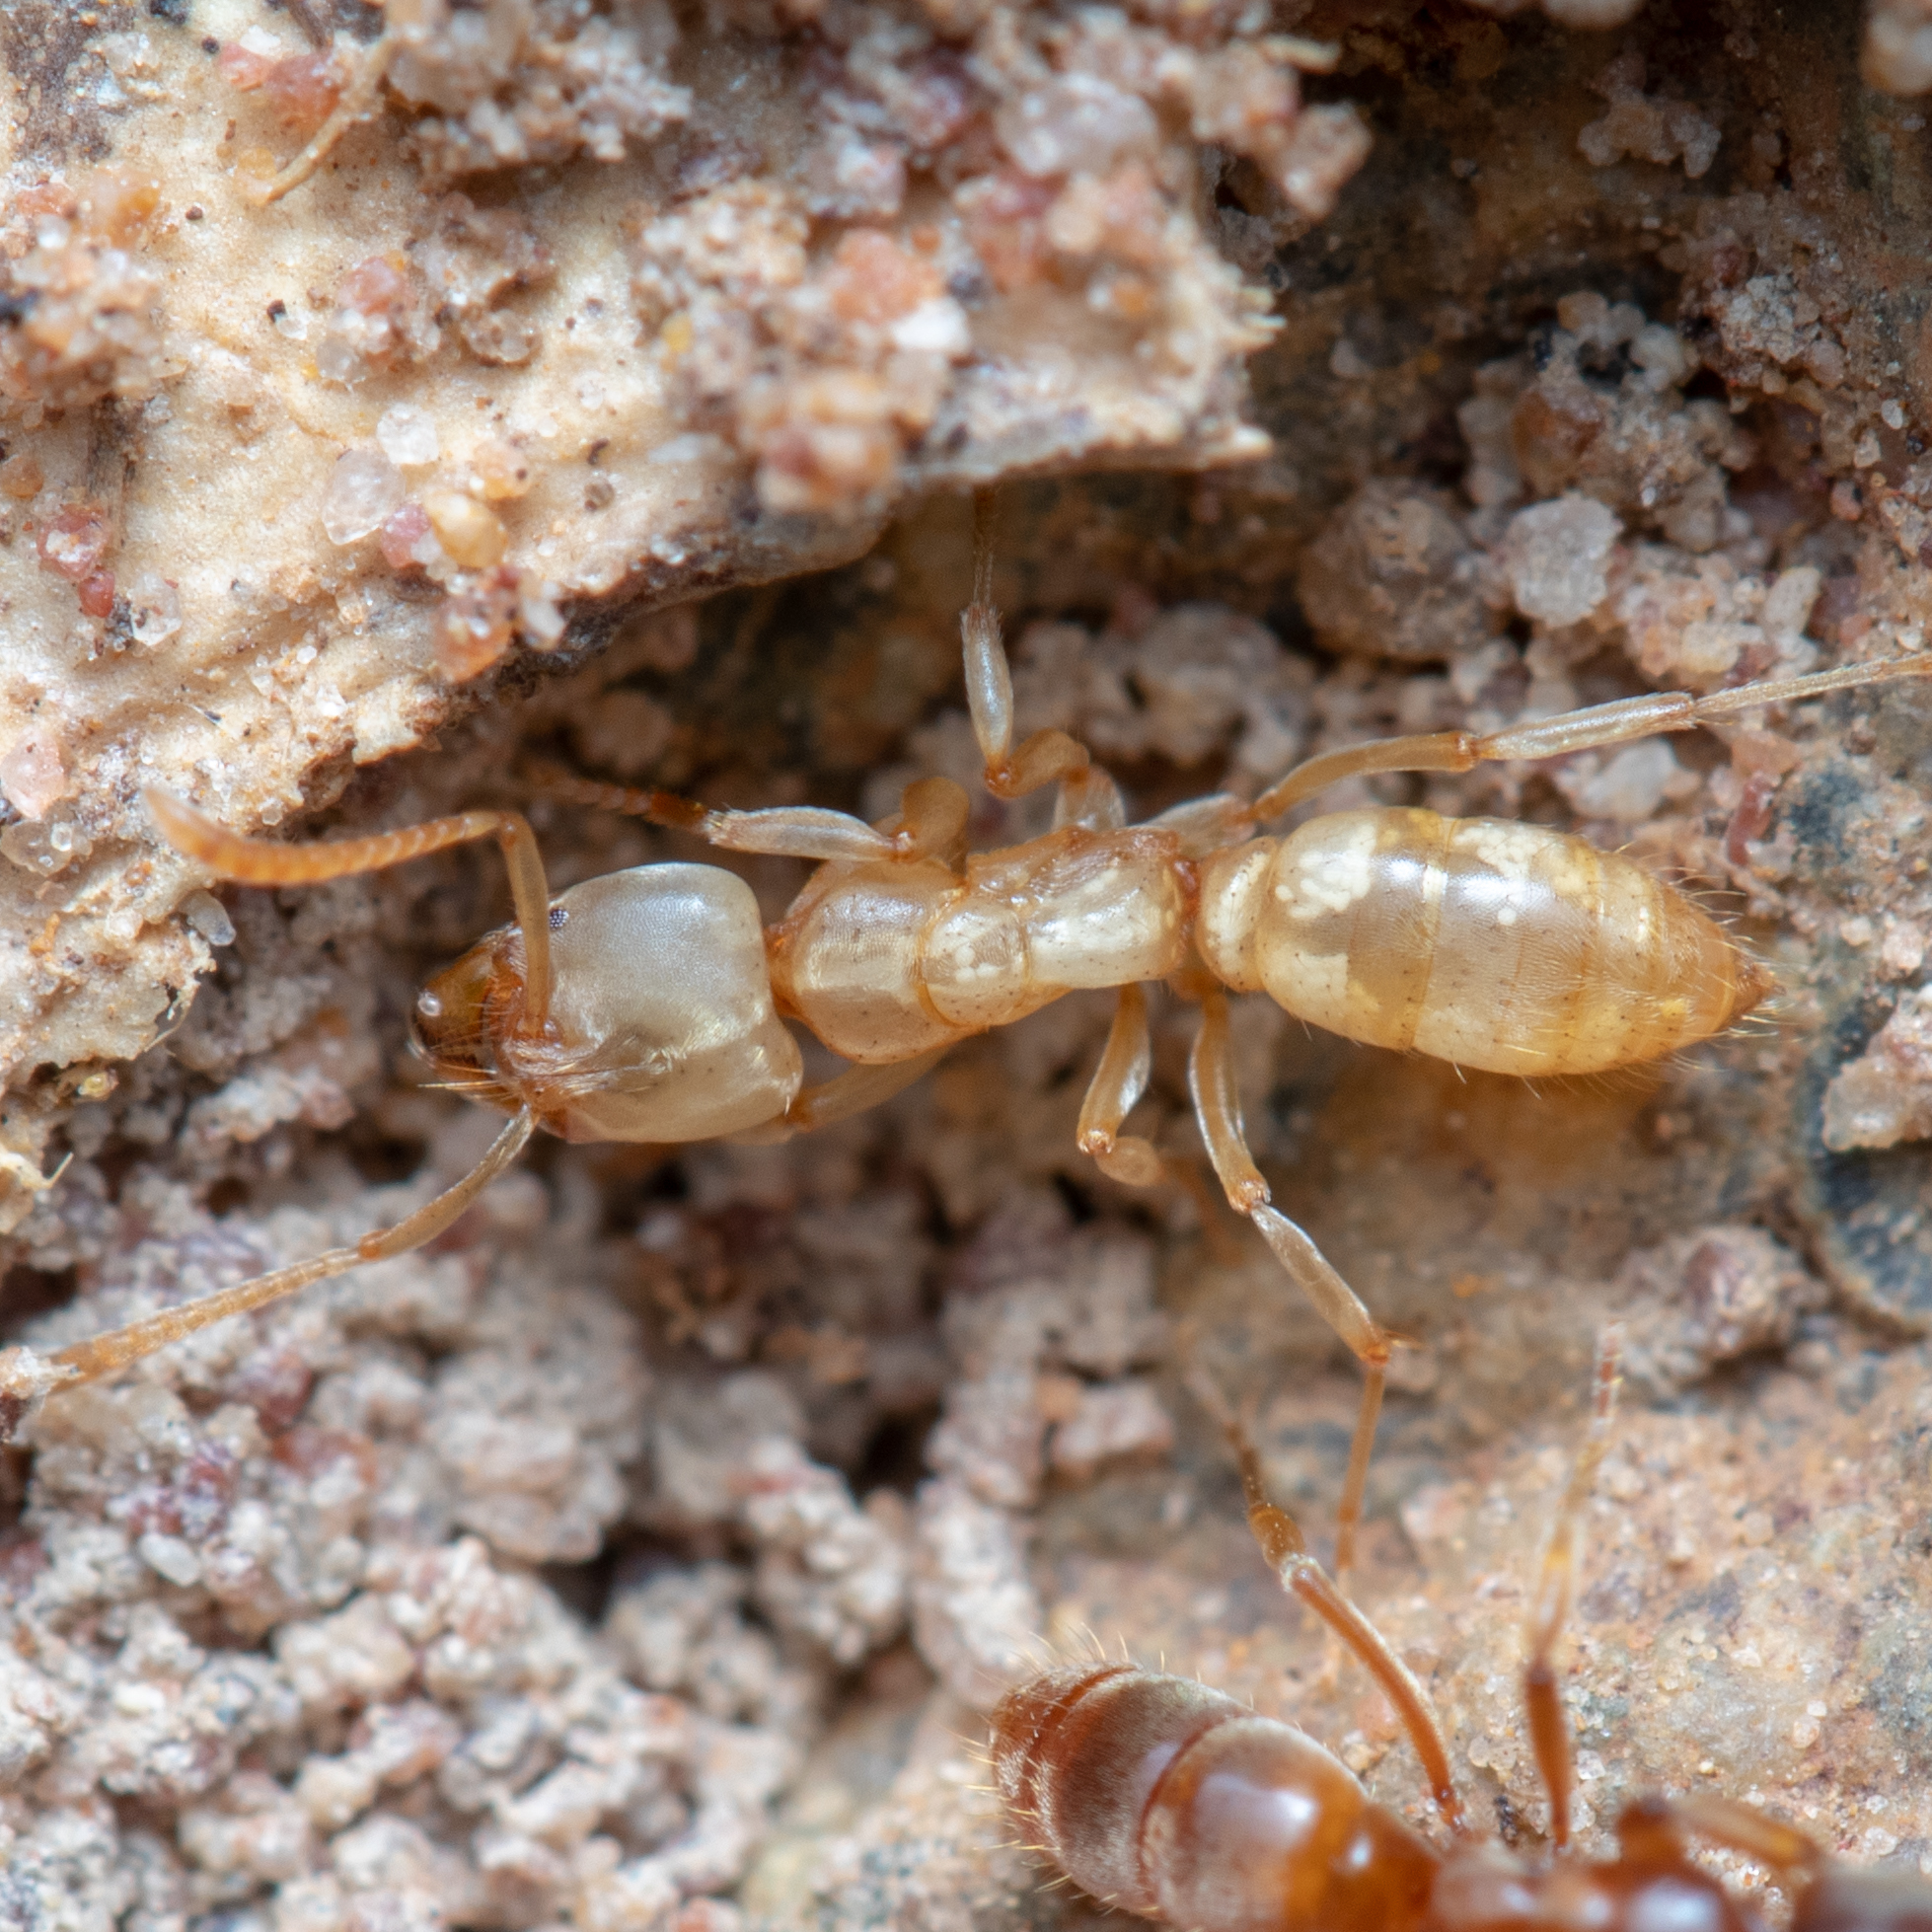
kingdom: Animalia
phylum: Arthropoda
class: Insecta
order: Hymenoptera
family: Formicidae
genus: Brachyponera
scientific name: Brachyponera
